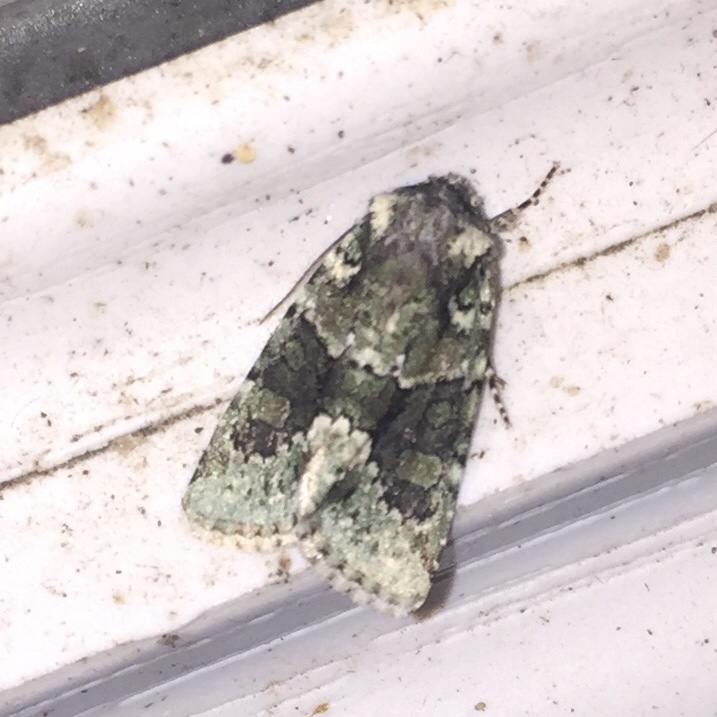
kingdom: Animalia
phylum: Arthropoda
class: Insecta
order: Lepidoptera
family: Noctuidae
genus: Lacinipolia
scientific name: Lacinipolia explicata
